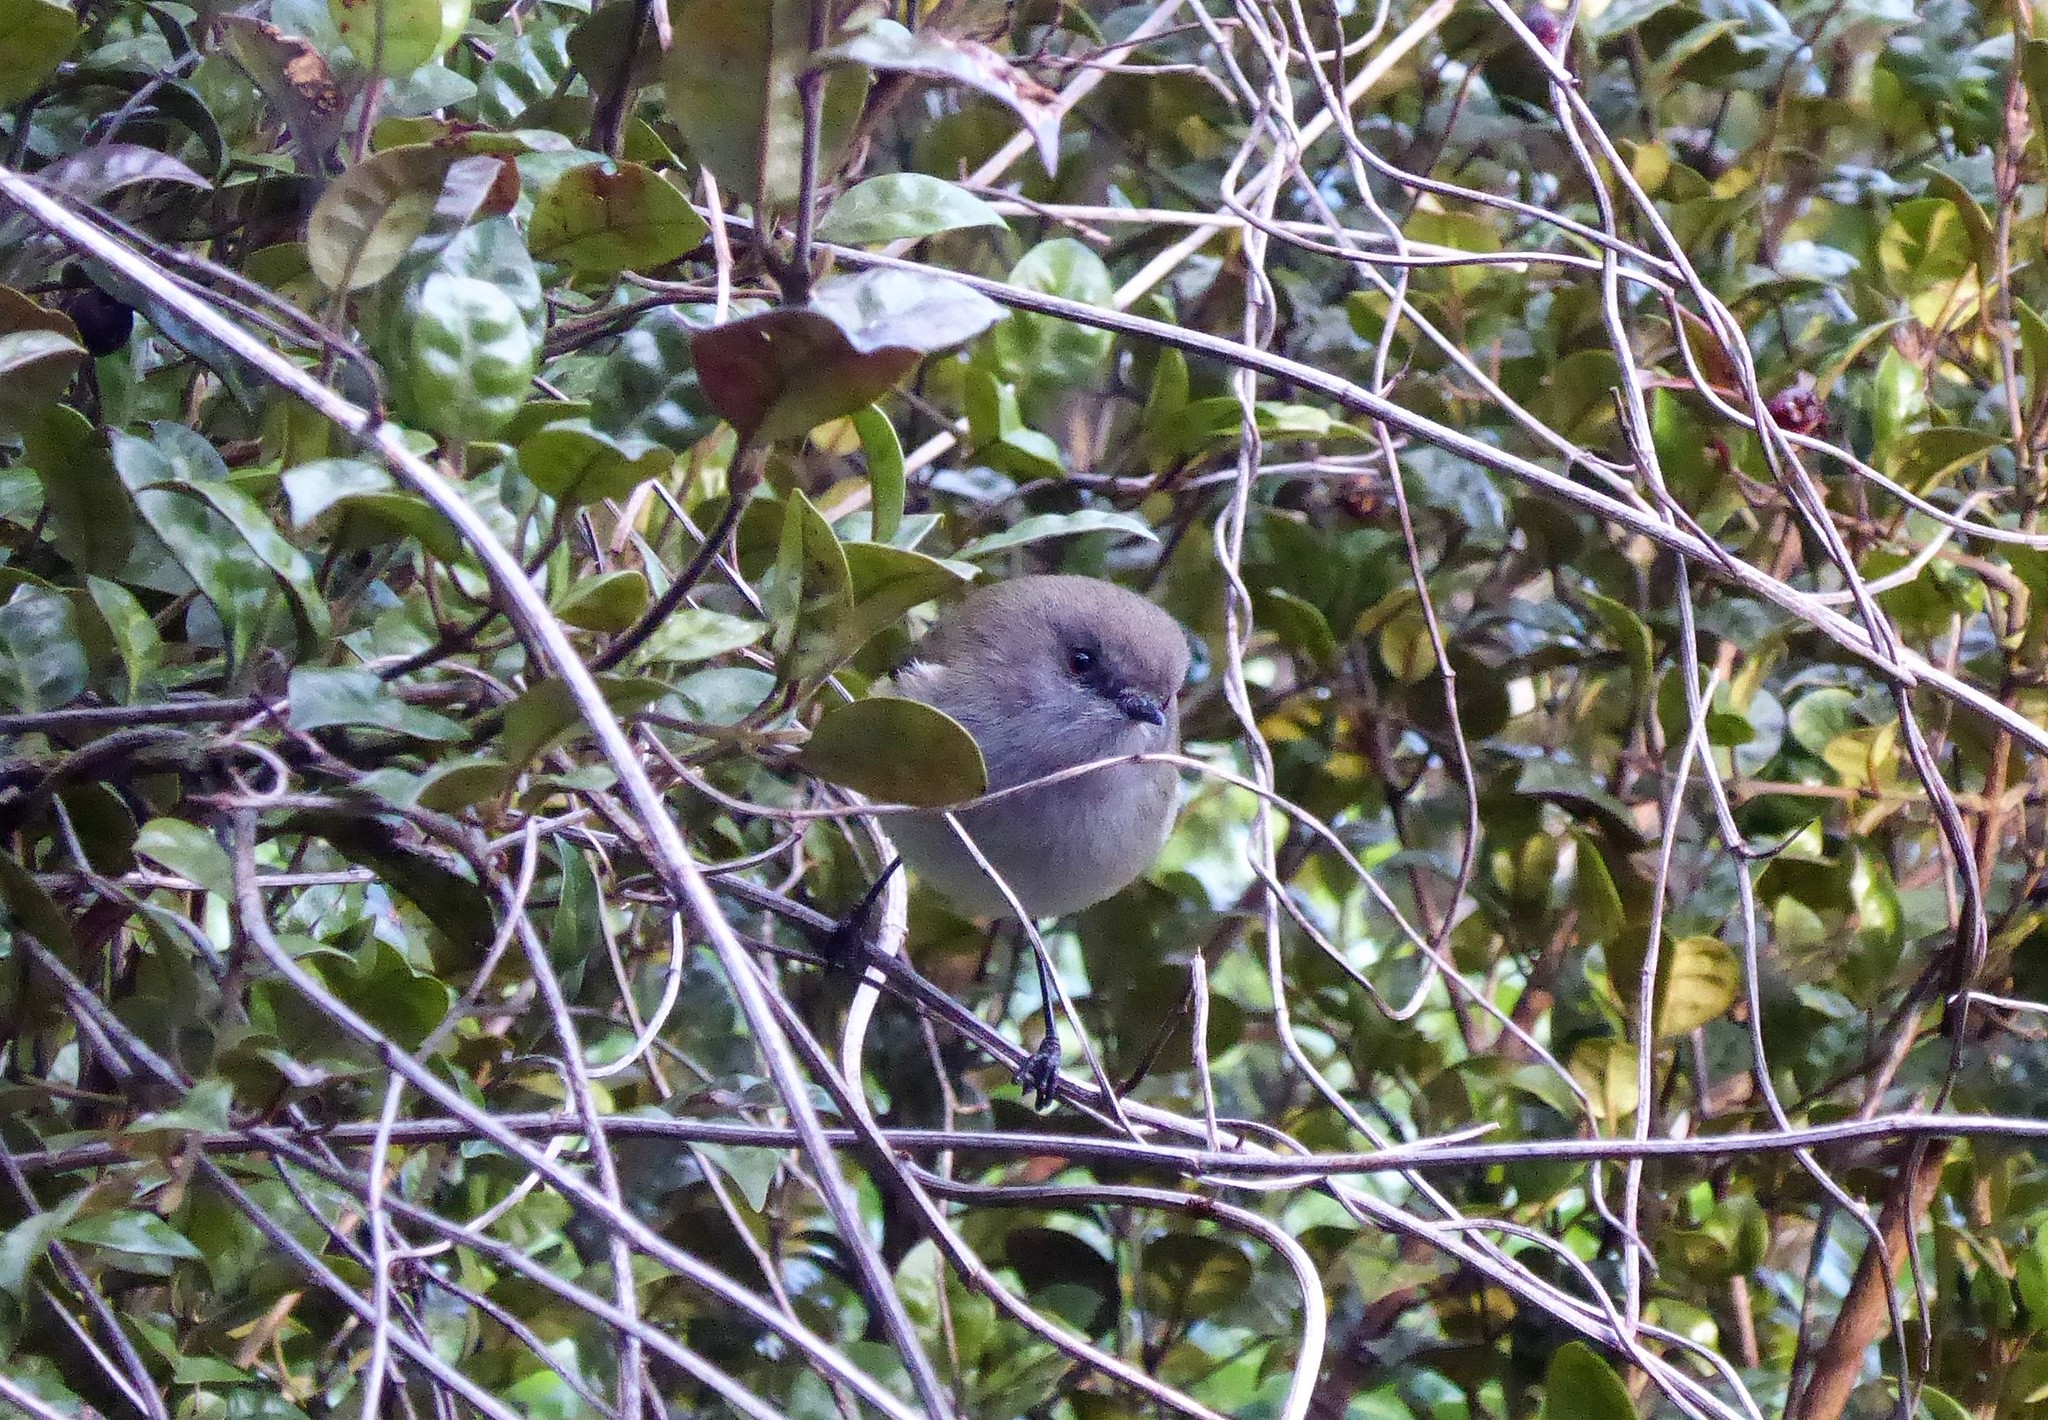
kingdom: Animalia
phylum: Chordata
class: Aves
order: Passeriformes
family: Acanthizidae
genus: Gerygone
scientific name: Gerygone igata
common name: Grey gerygone
